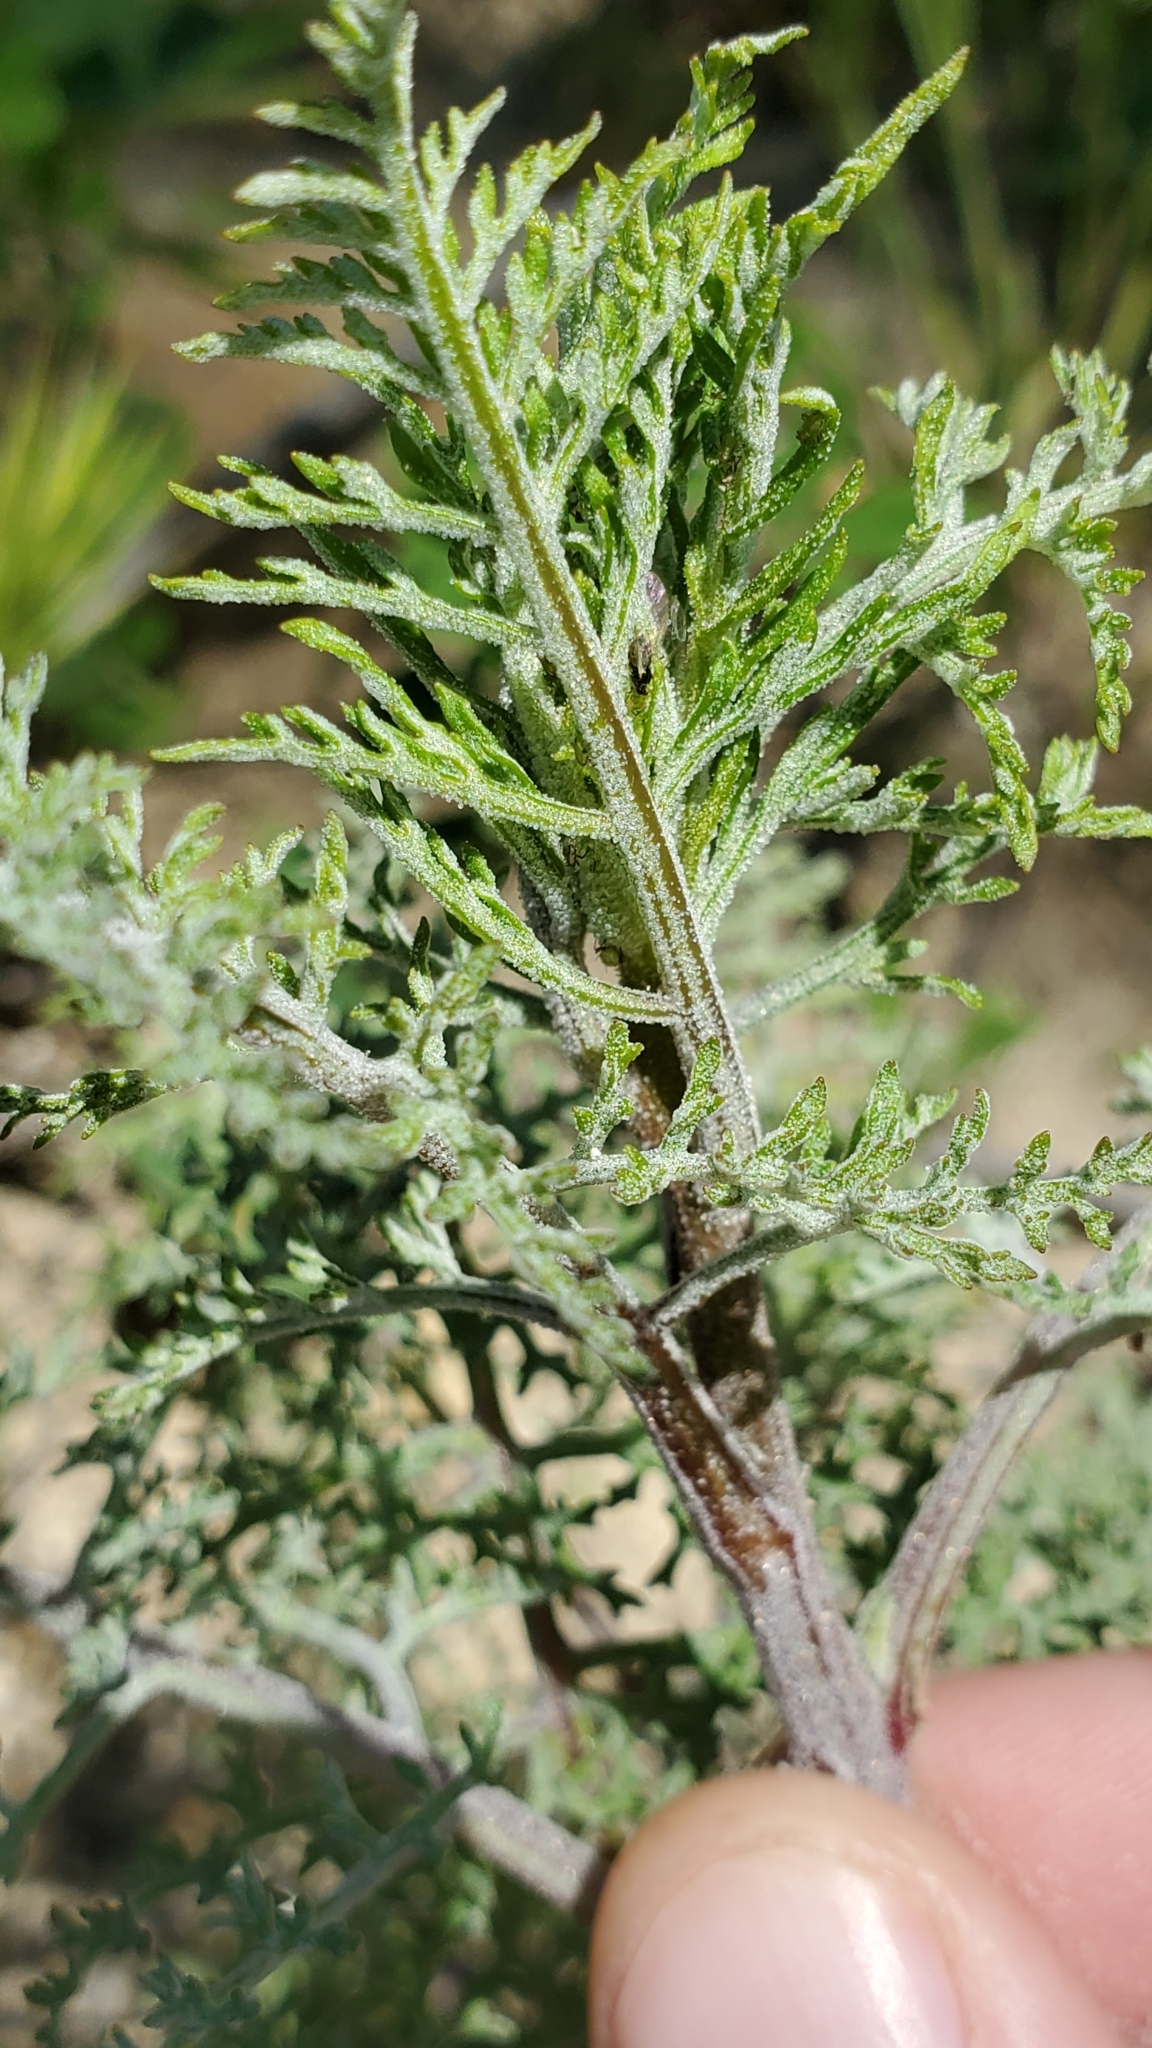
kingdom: Plantae
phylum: Tracheophyta
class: Magnoliopsida
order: Asterales
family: Asteraceae
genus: Chaenactis
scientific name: Chaenactis artemisiifolia
